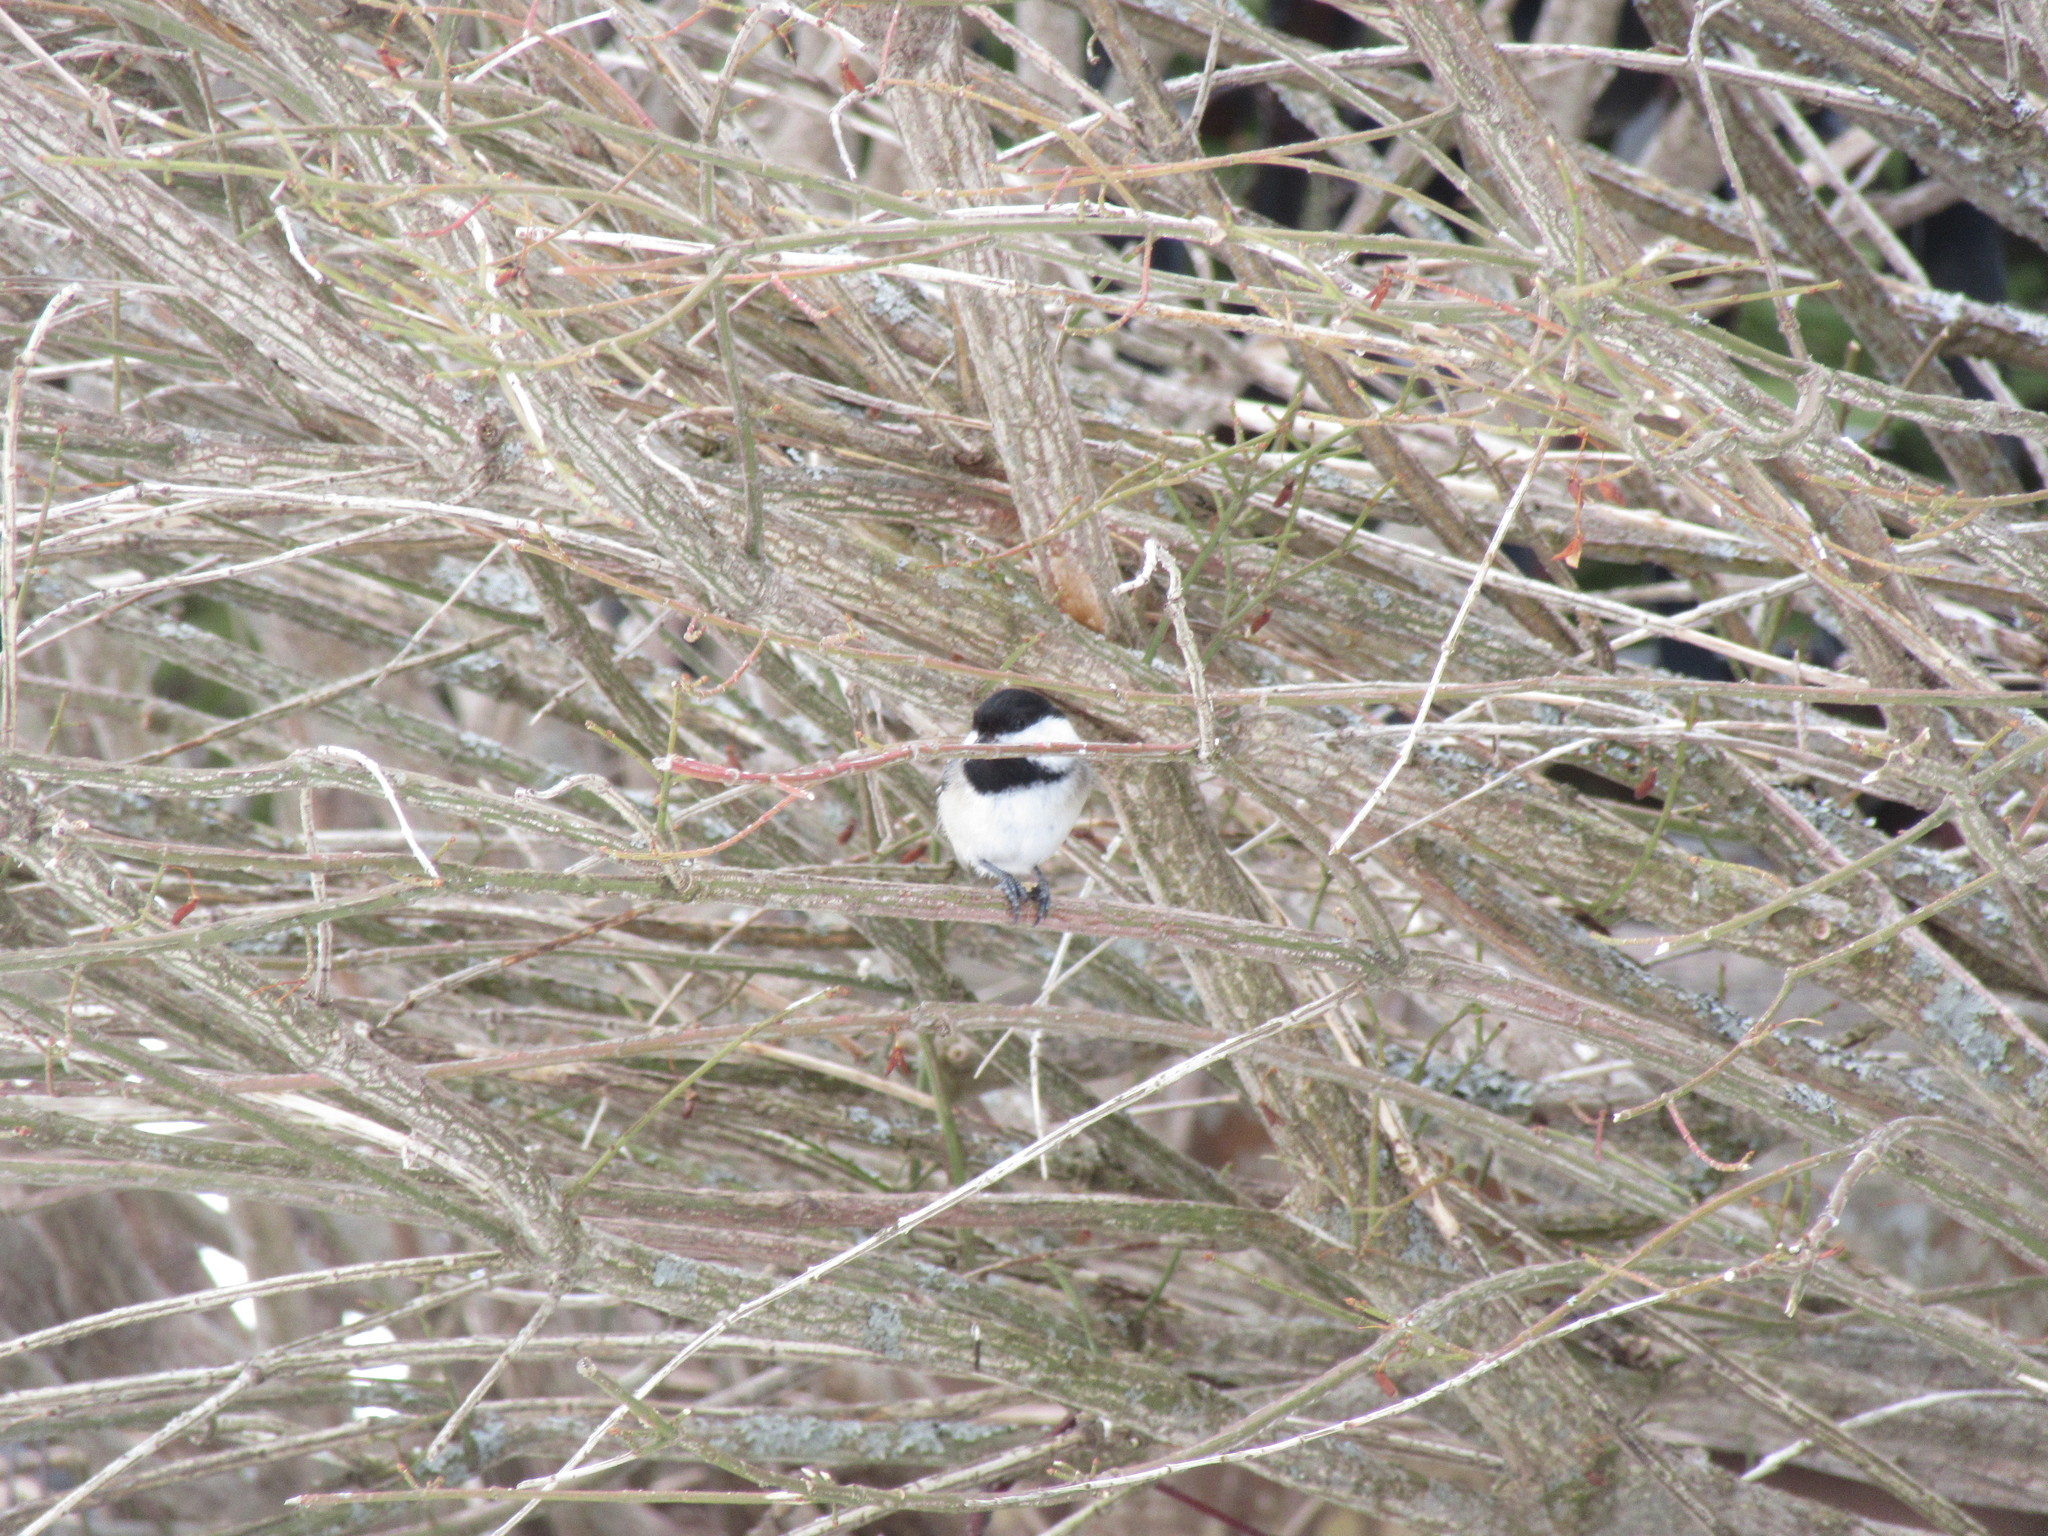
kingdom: Animalia
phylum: Chordata
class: Aves
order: Passeriformes
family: Paridae
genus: Poecile
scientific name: Poecile atricapillus
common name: Black-capped chickadee
